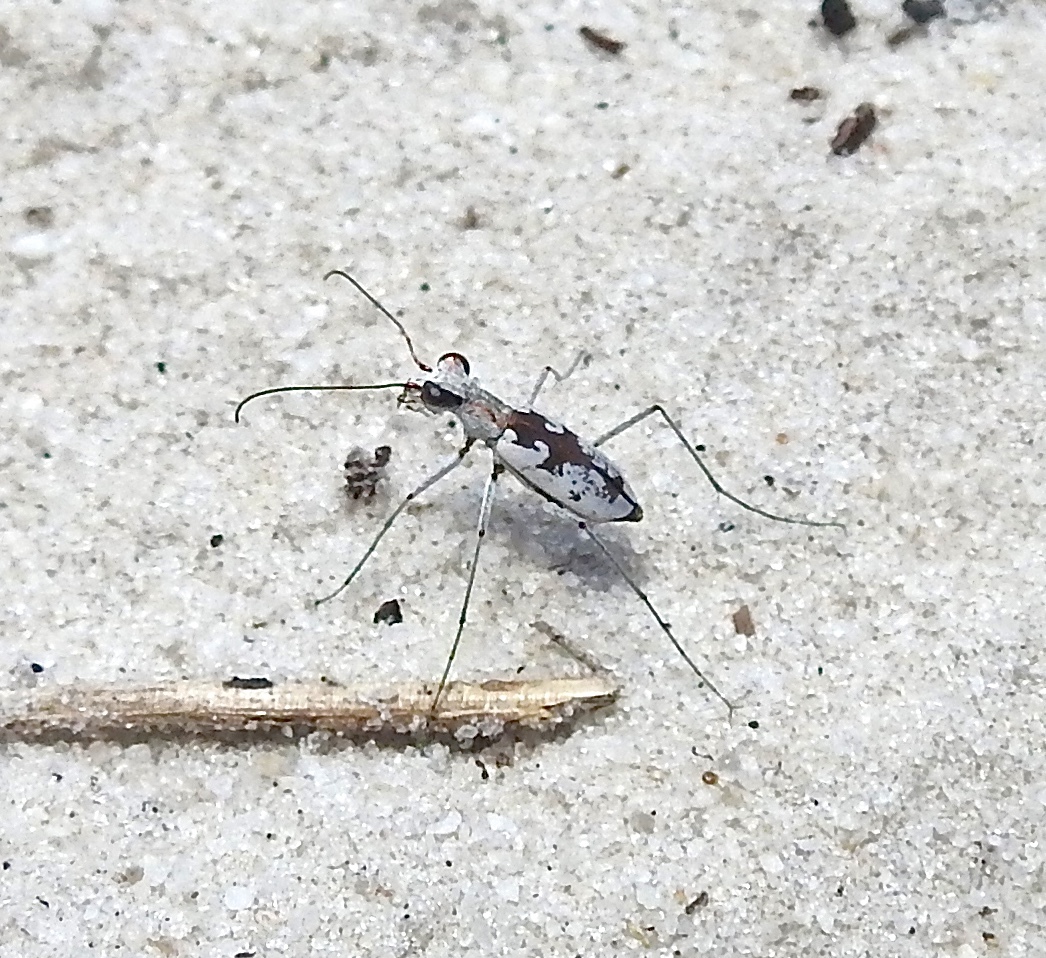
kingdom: Animalia
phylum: Arthropoda
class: Insecta
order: Coleoptera
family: Carabidae
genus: Ellipsoptera
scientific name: Ellipsoptera hirtilabris
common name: Moustached tiger beetle
